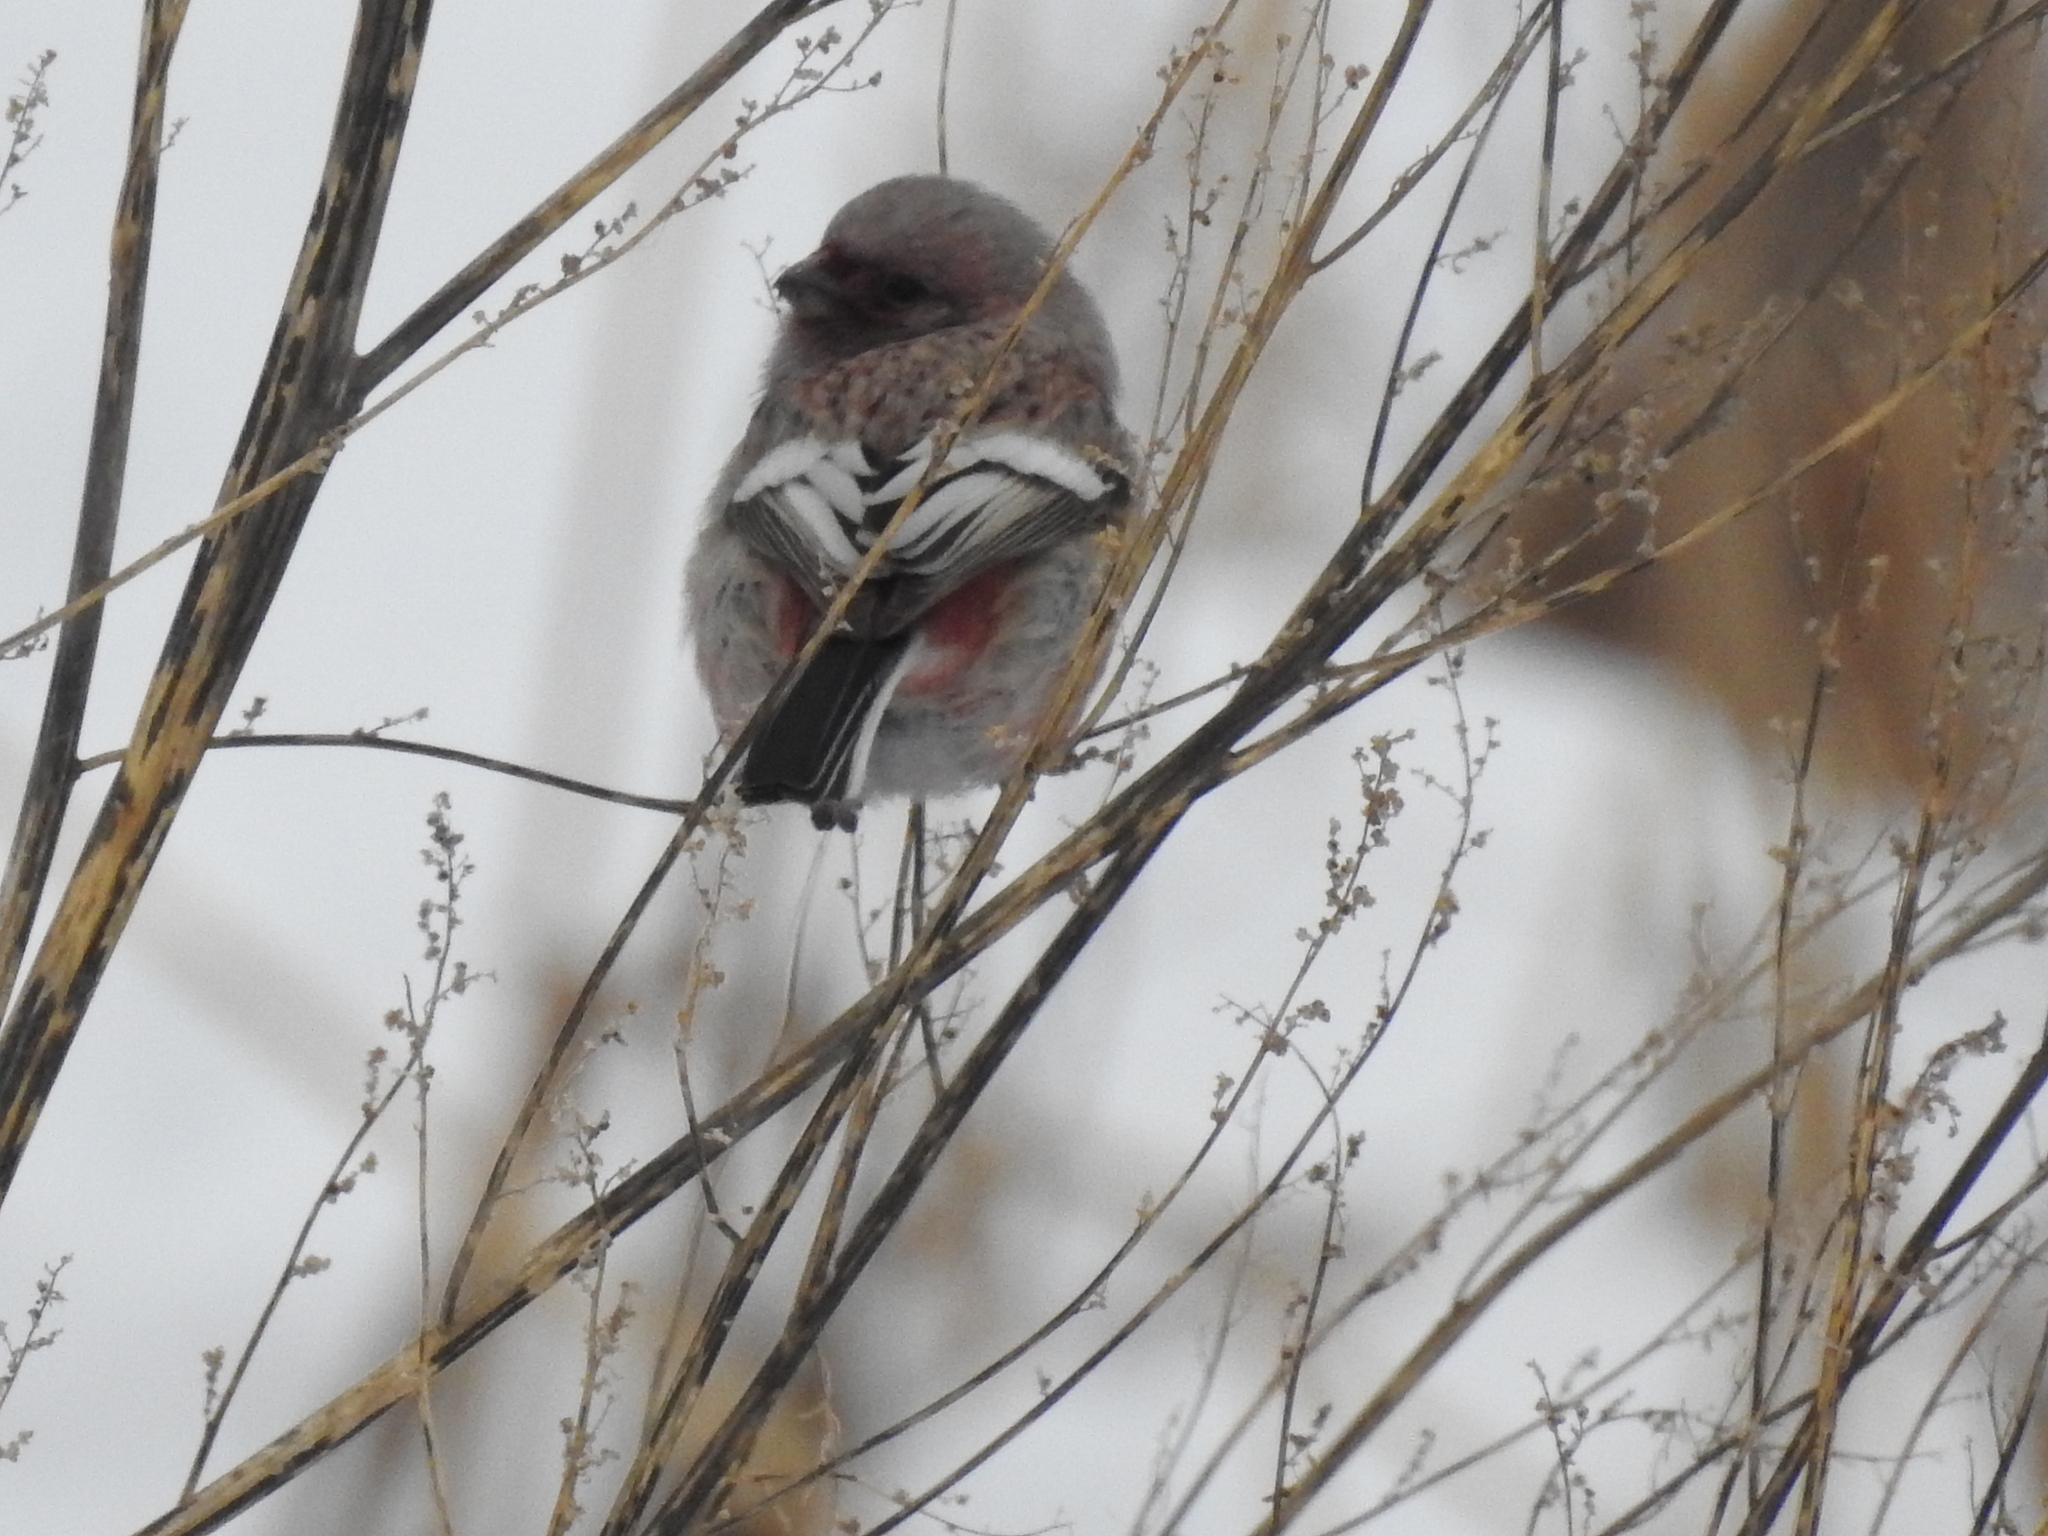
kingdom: Animalia
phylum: Chordata
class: Aves
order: Passeriformes
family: Fringillidae
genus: Carpodacus
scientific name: Carpodacus sibiricus
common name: Long-tailed rosefinch
